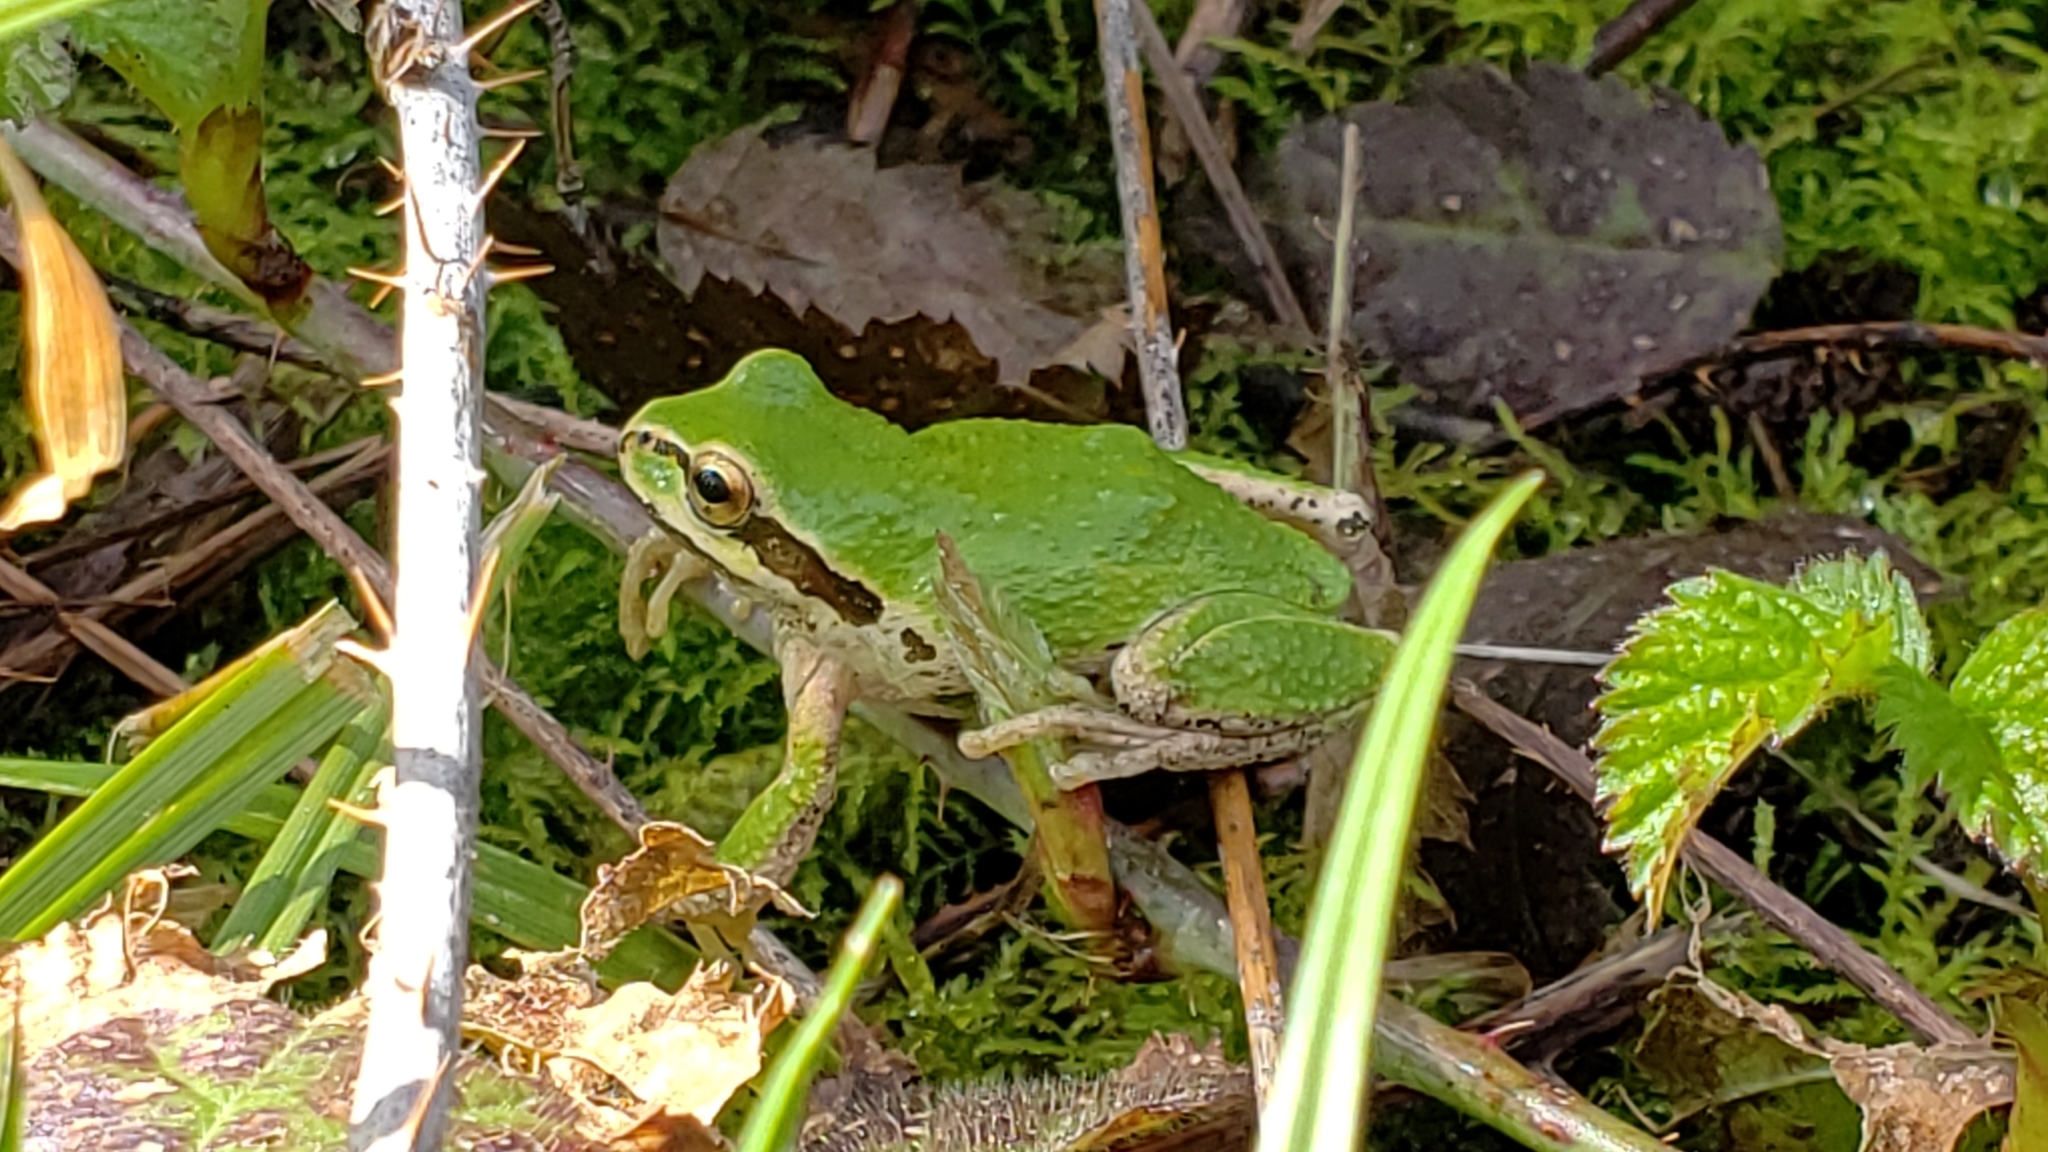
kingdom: Animalia
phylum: Chordata
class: Amphibia
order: Anura
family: Hylidae
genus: Pseudacris
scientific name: Pseudacris regilla
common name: Pacific chorus frog
